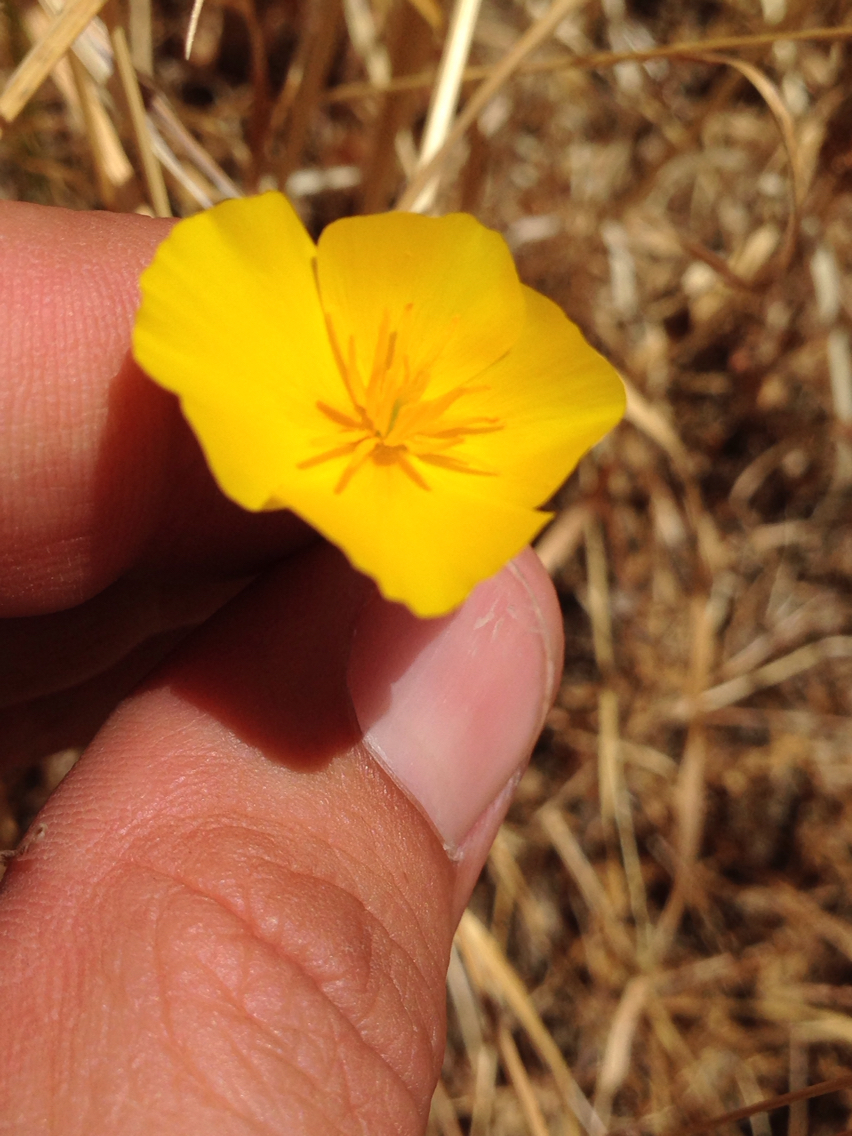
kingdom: Plantae
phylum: Tracheophyta
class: Magnoliopsida
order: Ranunculales
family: Papaveraceae
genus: Eschscholzia
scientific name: Eschscholzia californica
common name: California poppy
